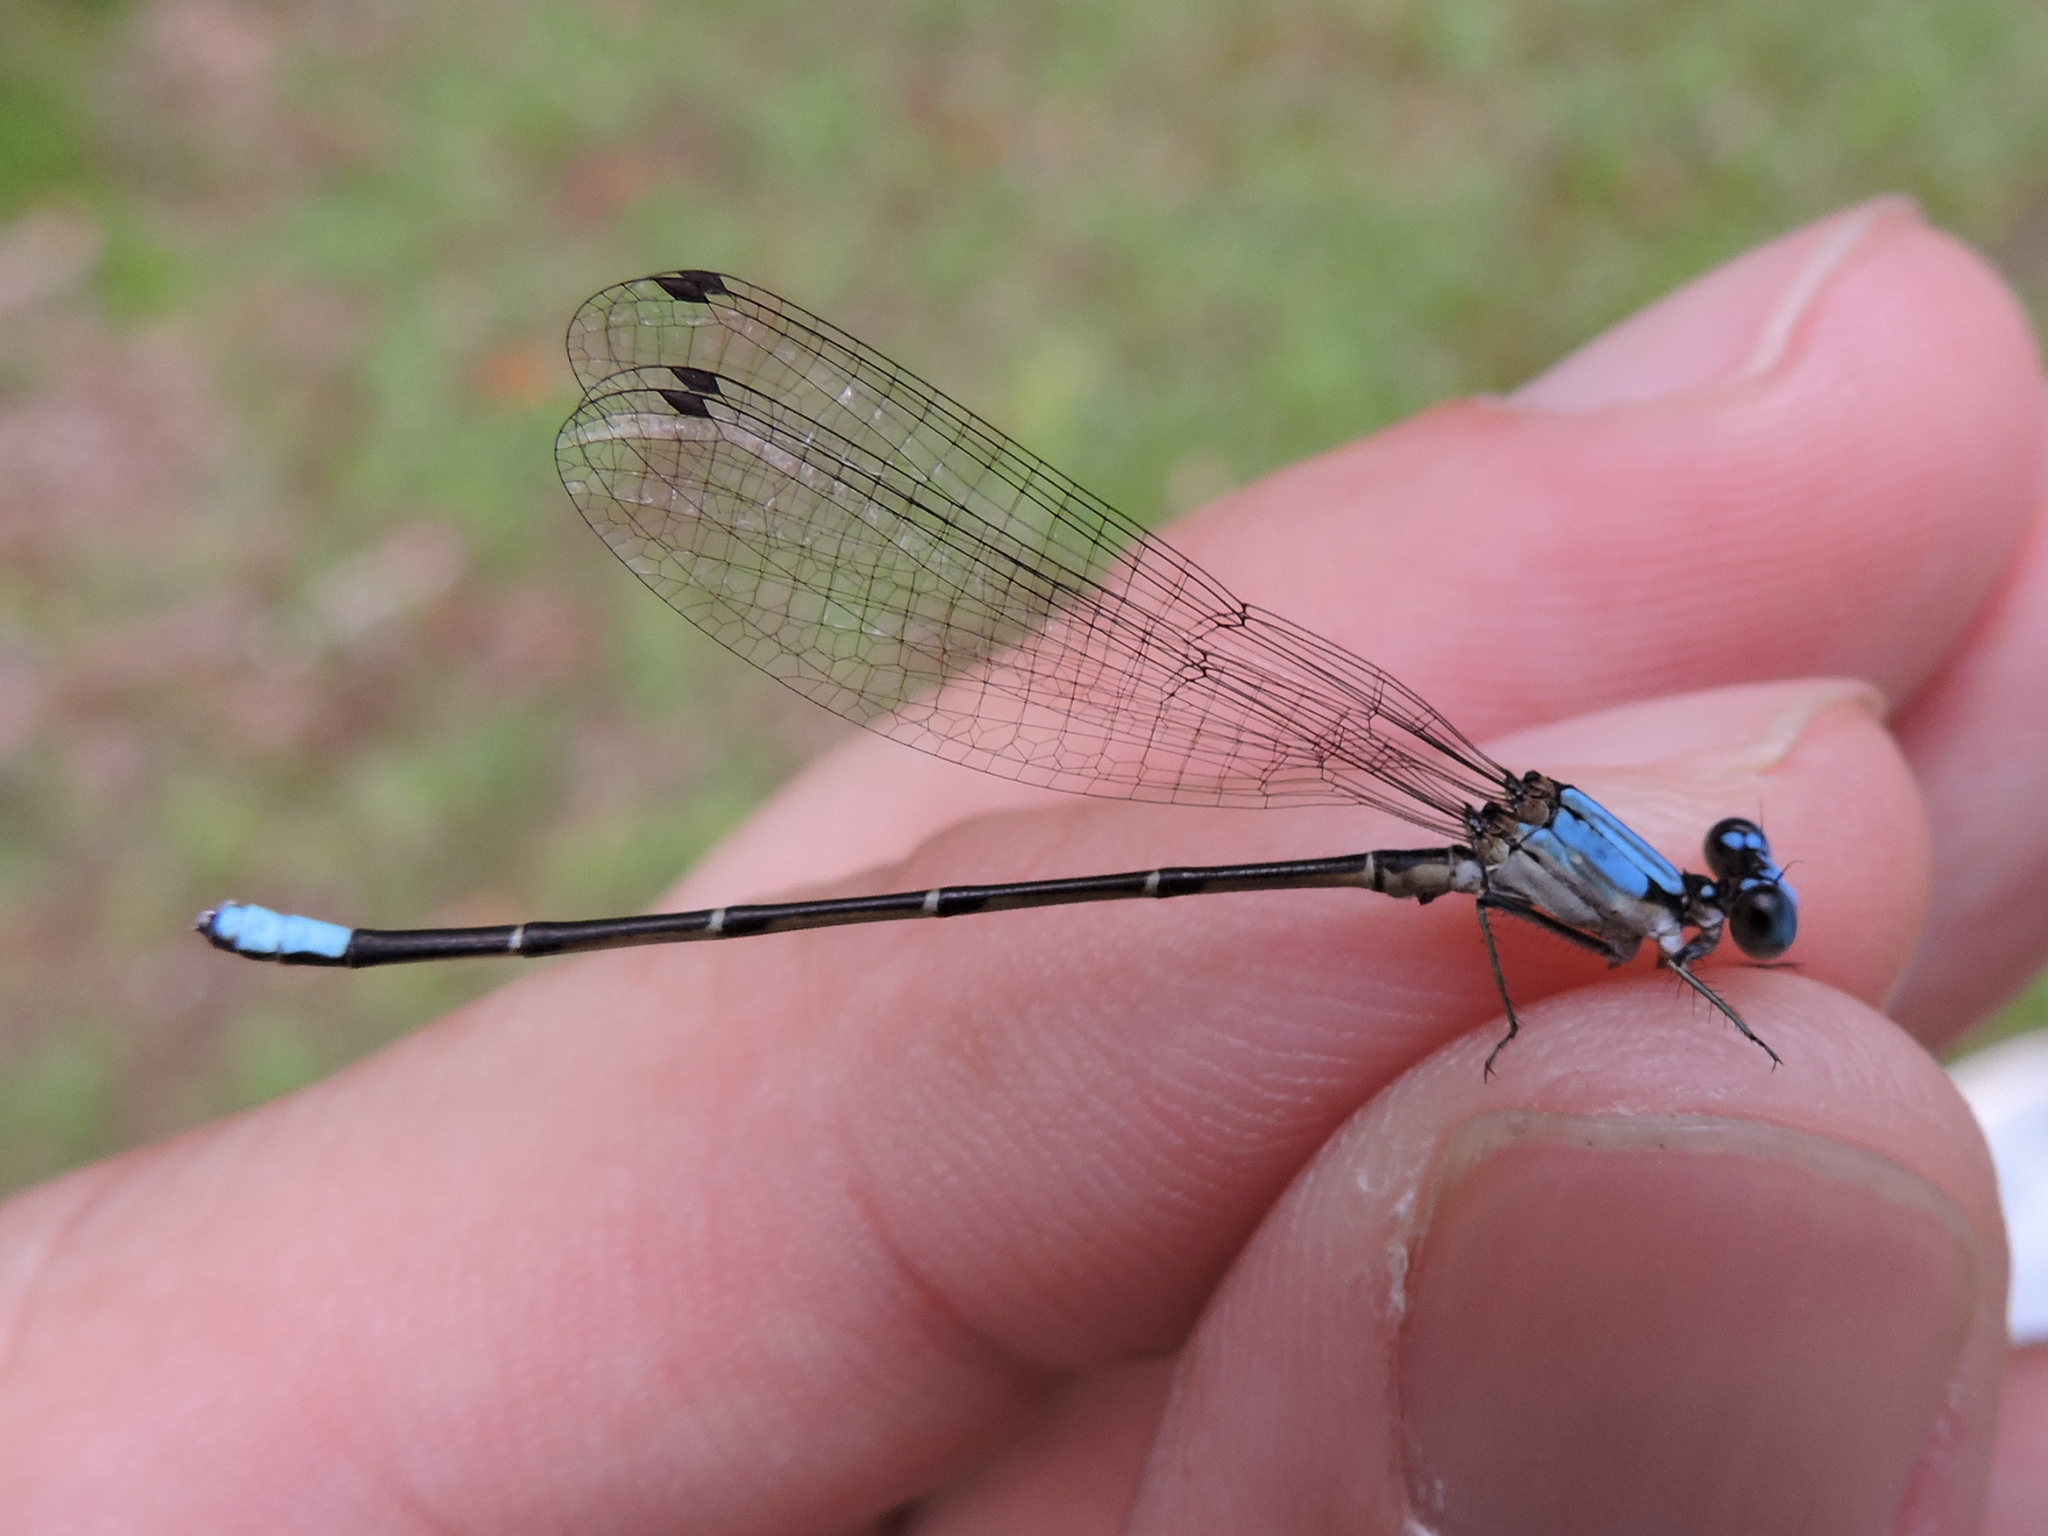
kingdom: Animalia
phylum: Arthropoda
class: Insecta
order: Odonata
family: Coenagrionidae
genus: Argia
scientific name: Argia apicalis
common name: Blue-fronted dancer
